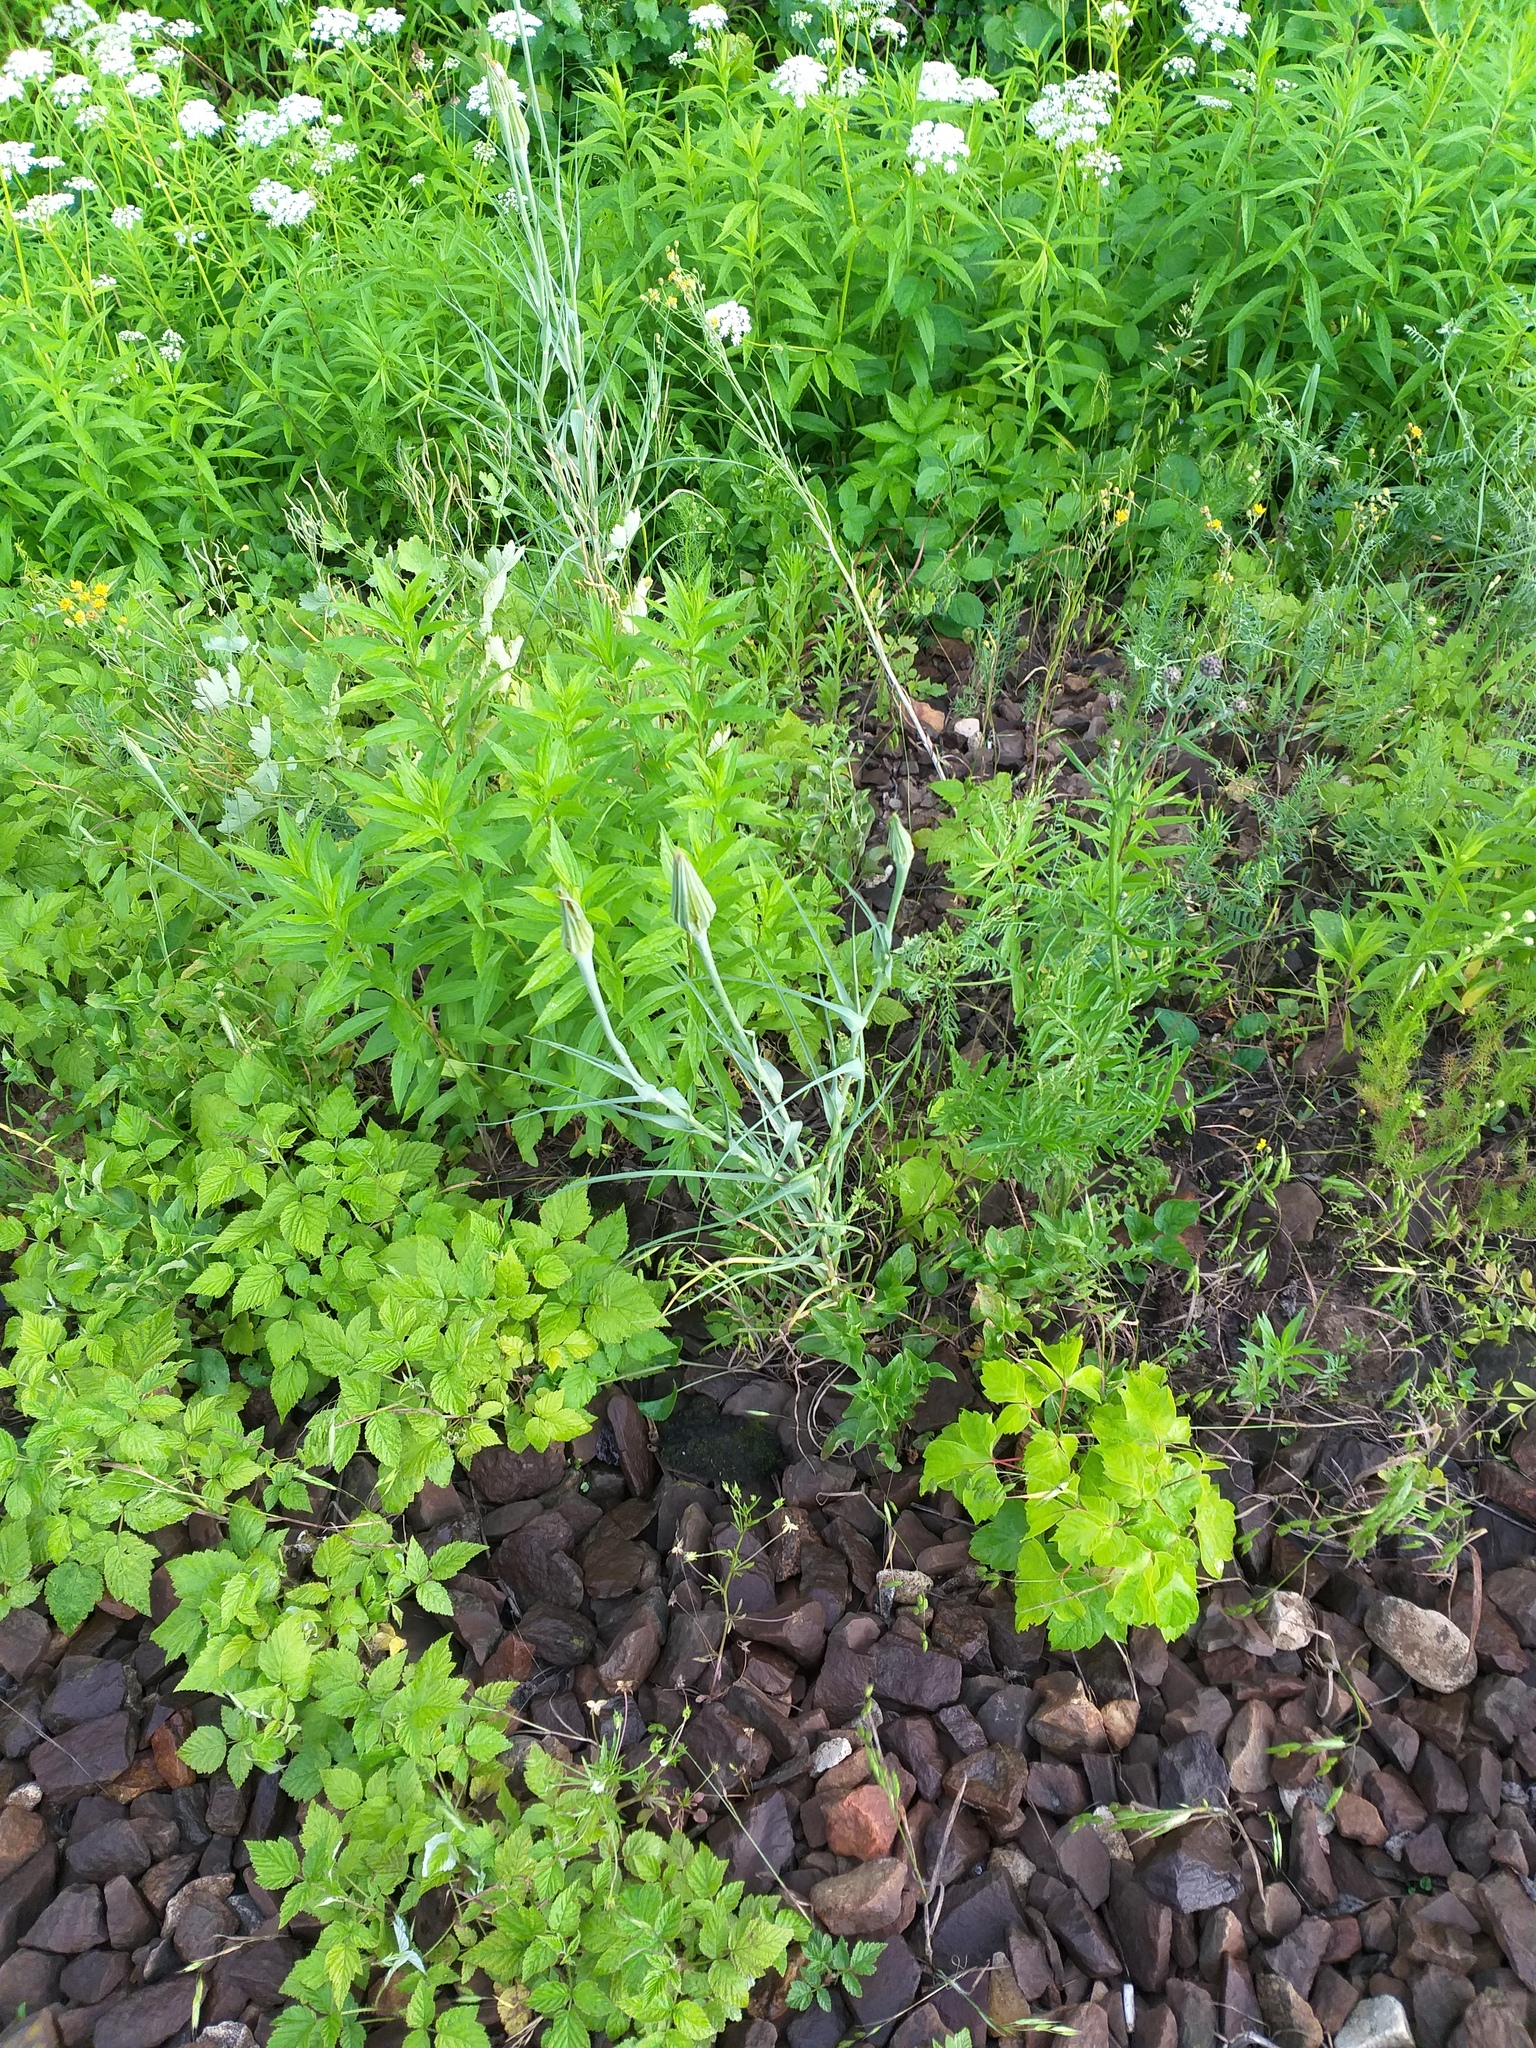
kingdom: Plantae
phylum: Tracheophyta
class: Magnoliopsida
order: Asterales
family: Asteraceae
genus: Tragopogon
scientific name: Tragopogon dubius
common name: Yellow salsify
